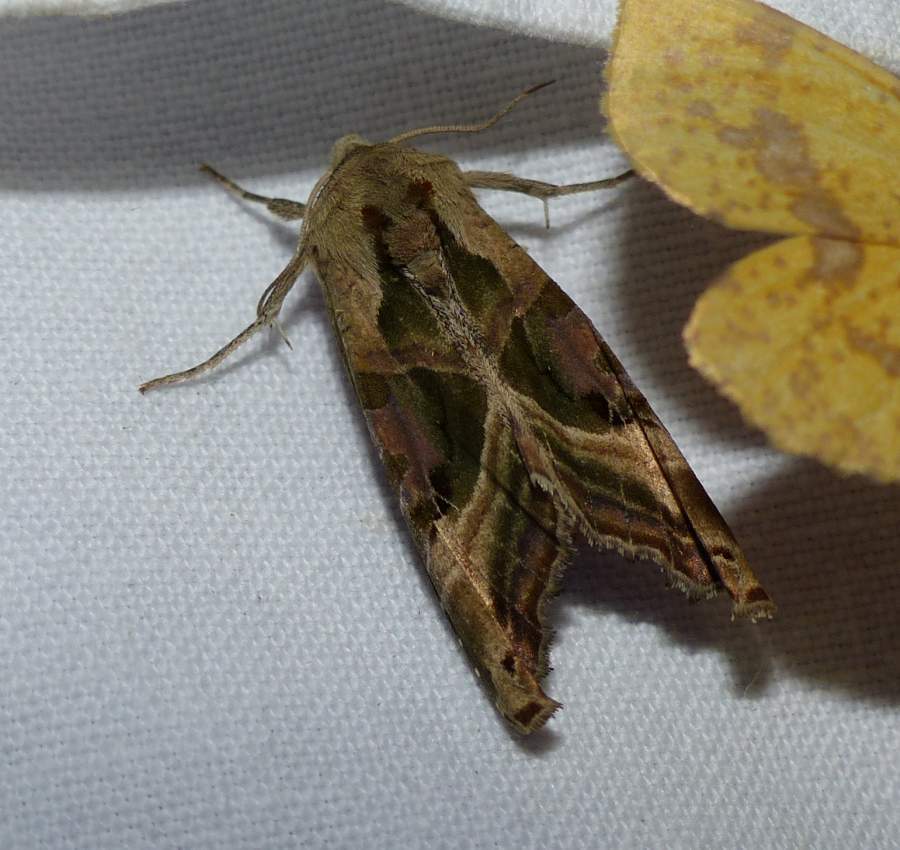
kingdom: Animalia
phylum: Arthropoda
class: Insecta
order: Lepidoptera
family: Noctuidae
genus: Phlogophora
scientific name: Phlogophora iris
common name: Olive angle shades
